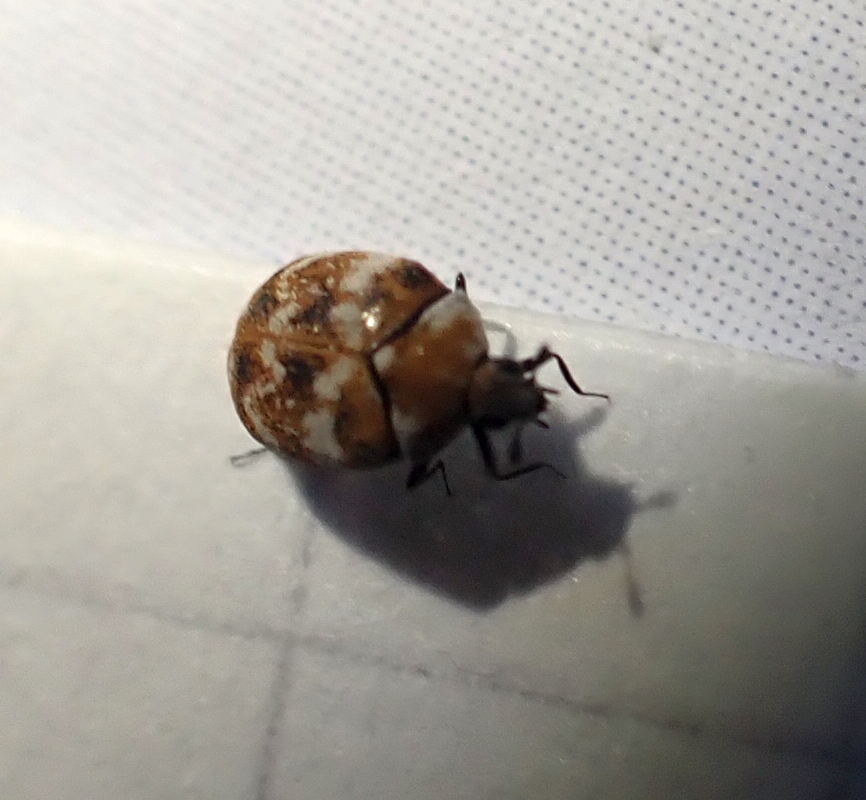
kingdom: Animalia
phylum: Arthropoda
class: Insecta
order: Coleoptera
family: Dermestidae
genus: Anthrenus
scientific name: Anthrenus verbasci
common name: Varied carpet beetle
